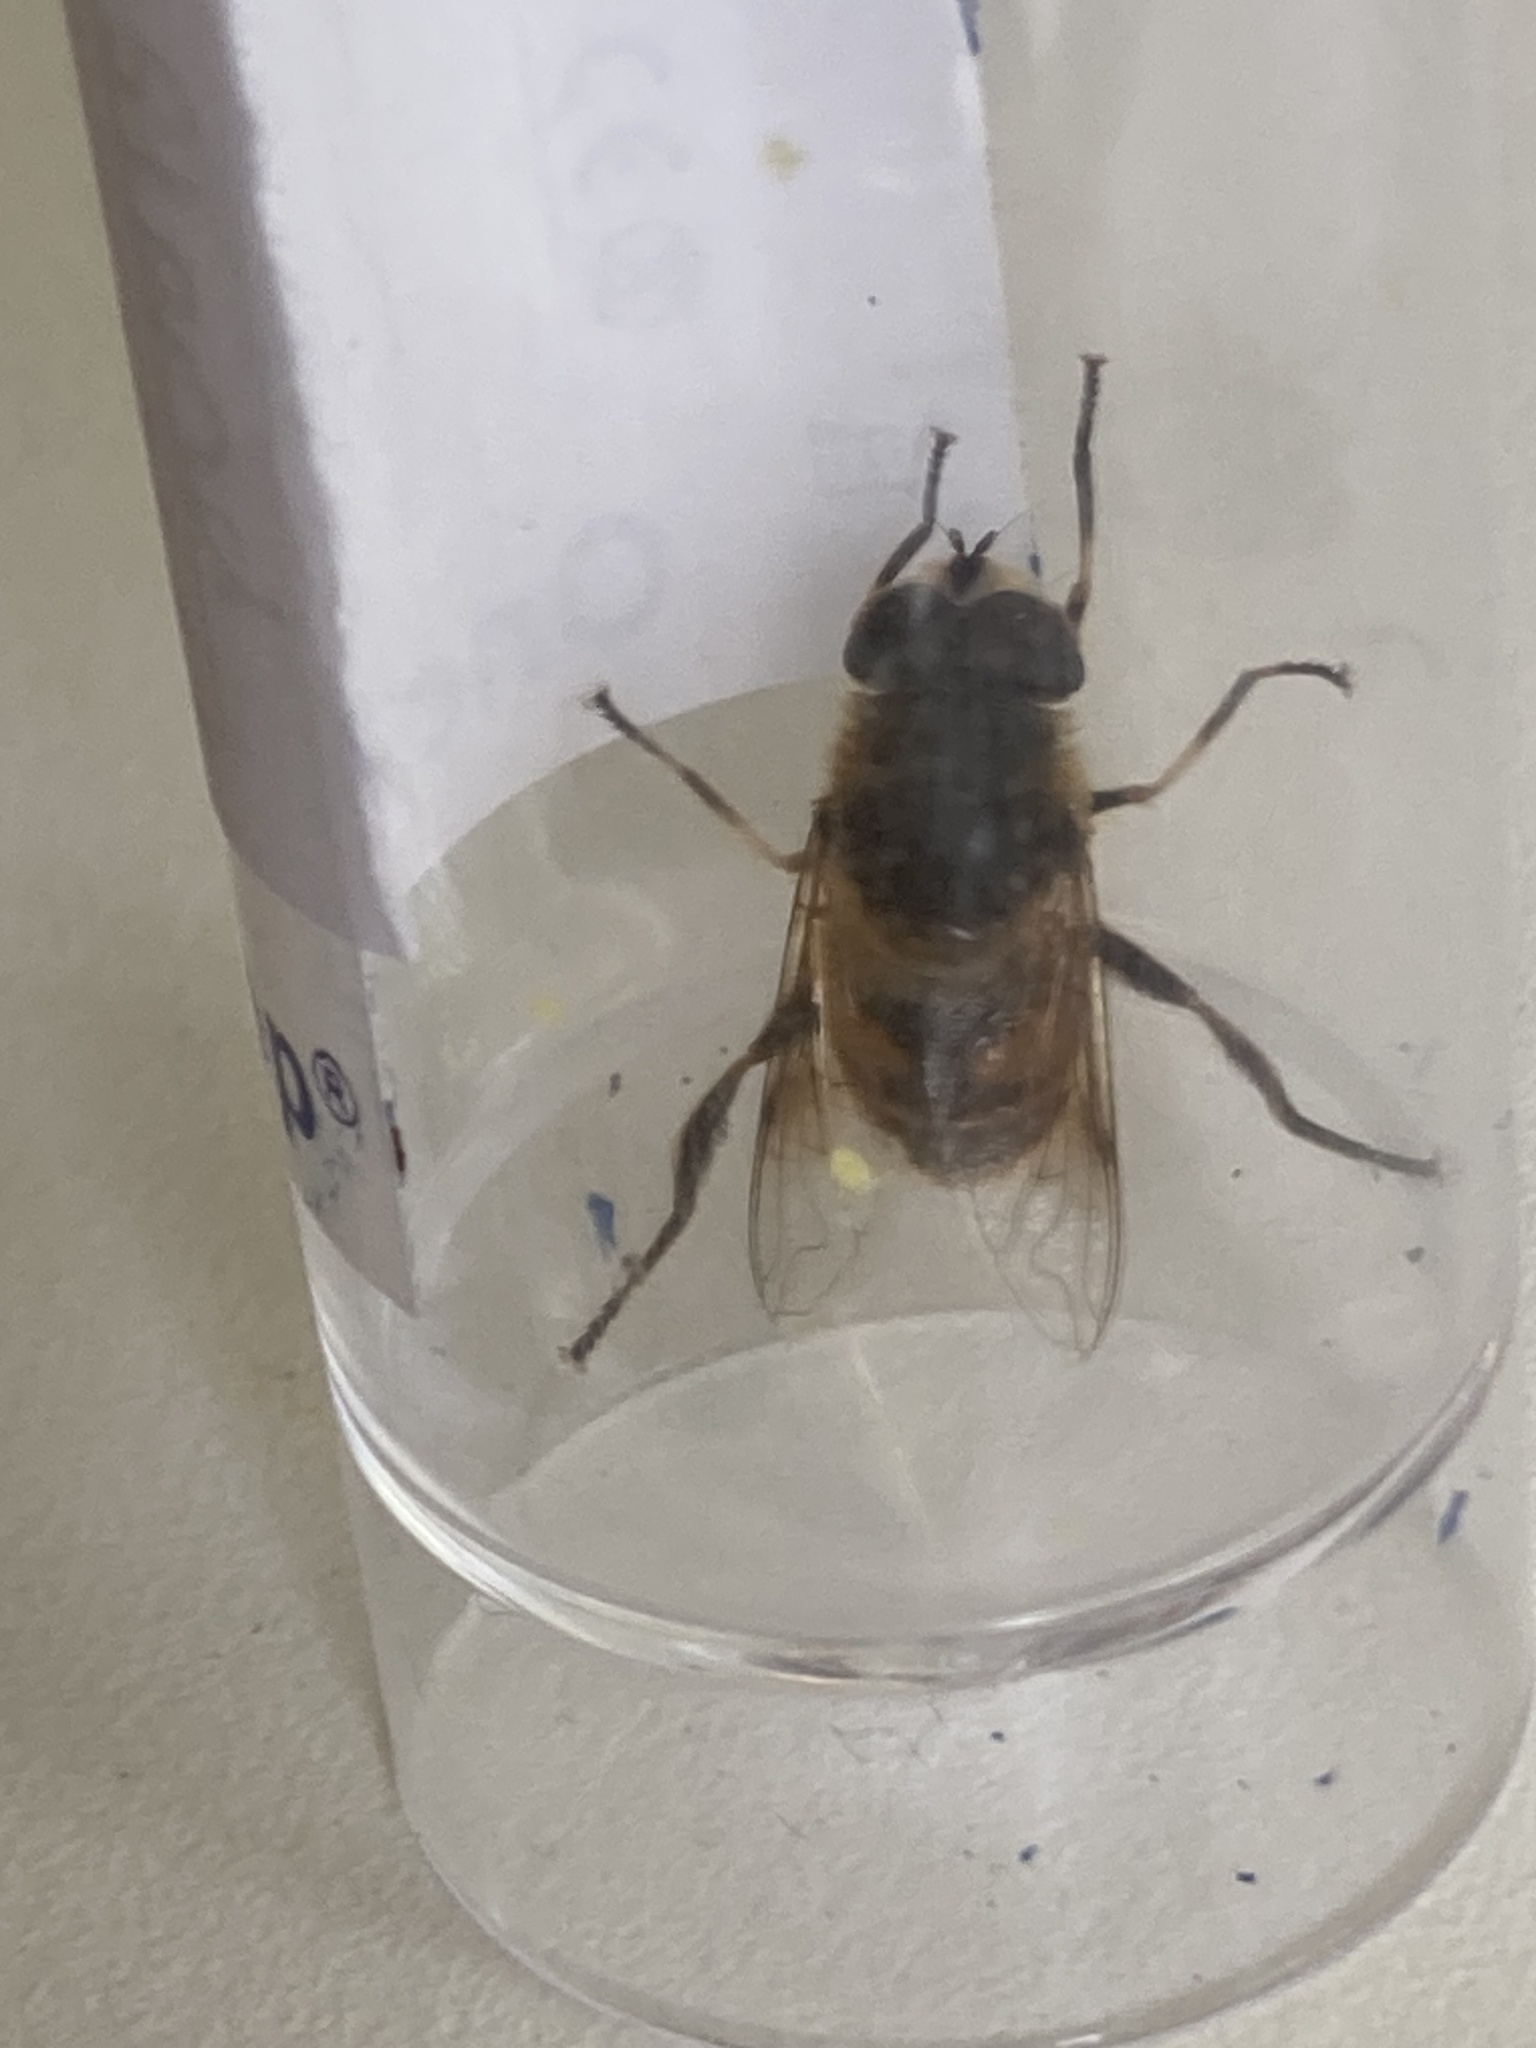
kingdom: Animalia
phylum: Arthropoda
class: Insecta
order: Diptera
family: Syrphidae
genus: Eristalis
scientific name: Eristalis tenax
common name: Drone fly
